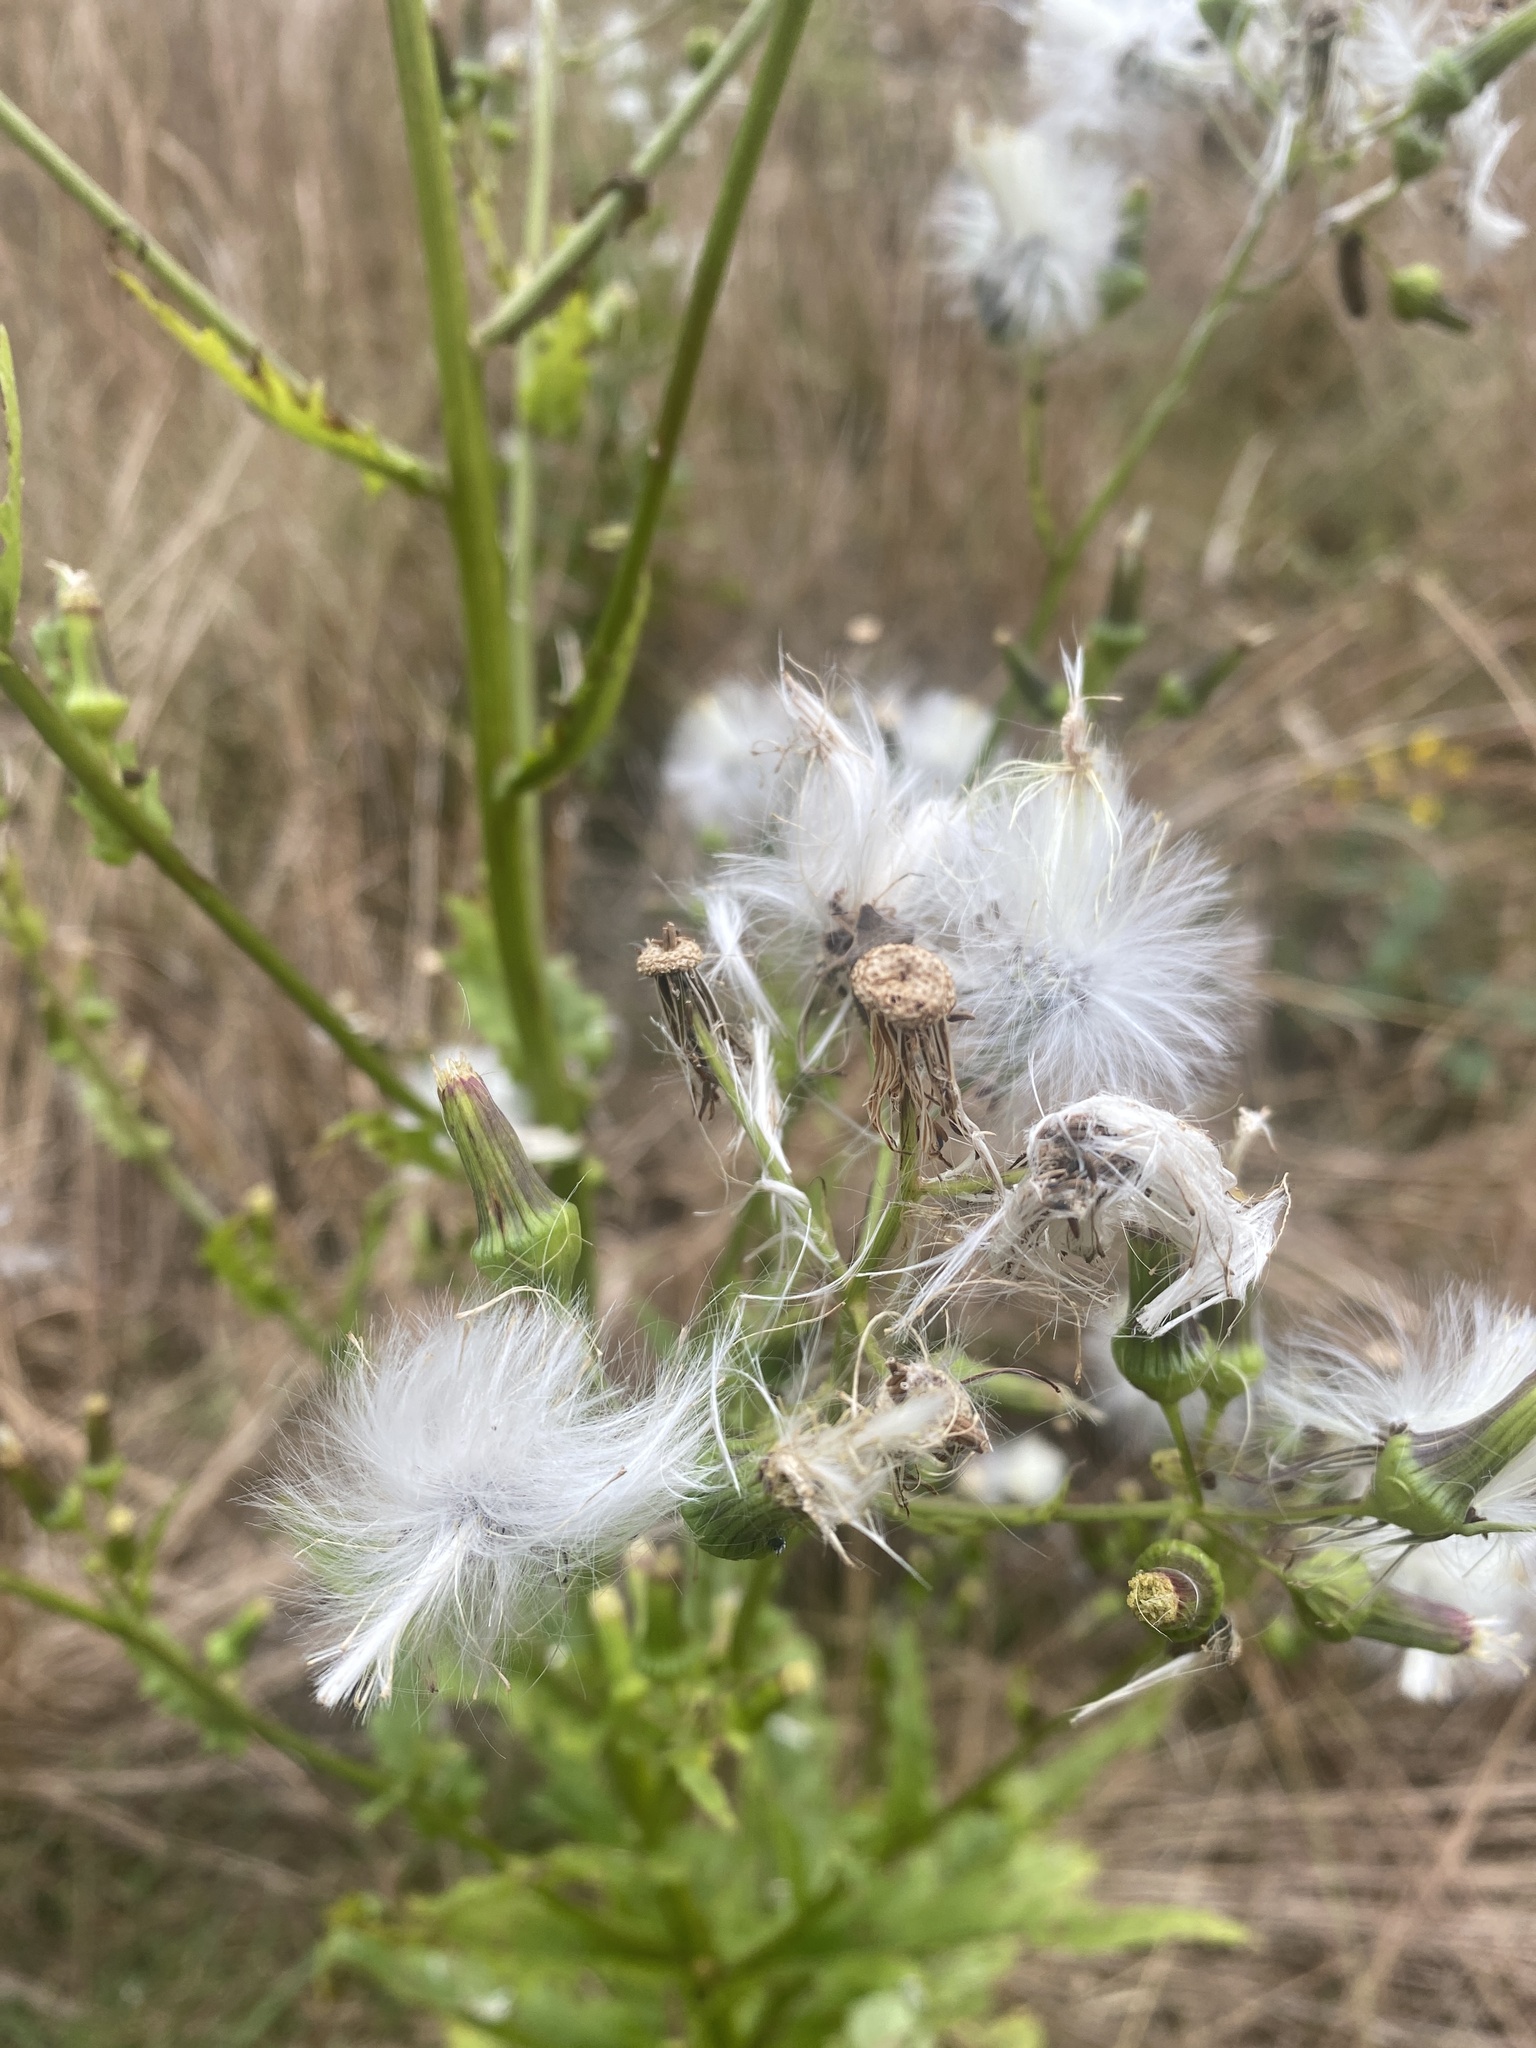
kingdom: Plantae
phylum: Tracheophyta
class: Magnoliopsida
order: Asterales
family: Asteraceae
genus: Erechtites
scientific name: Erechtites hieraciifolius
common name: American burnweed
